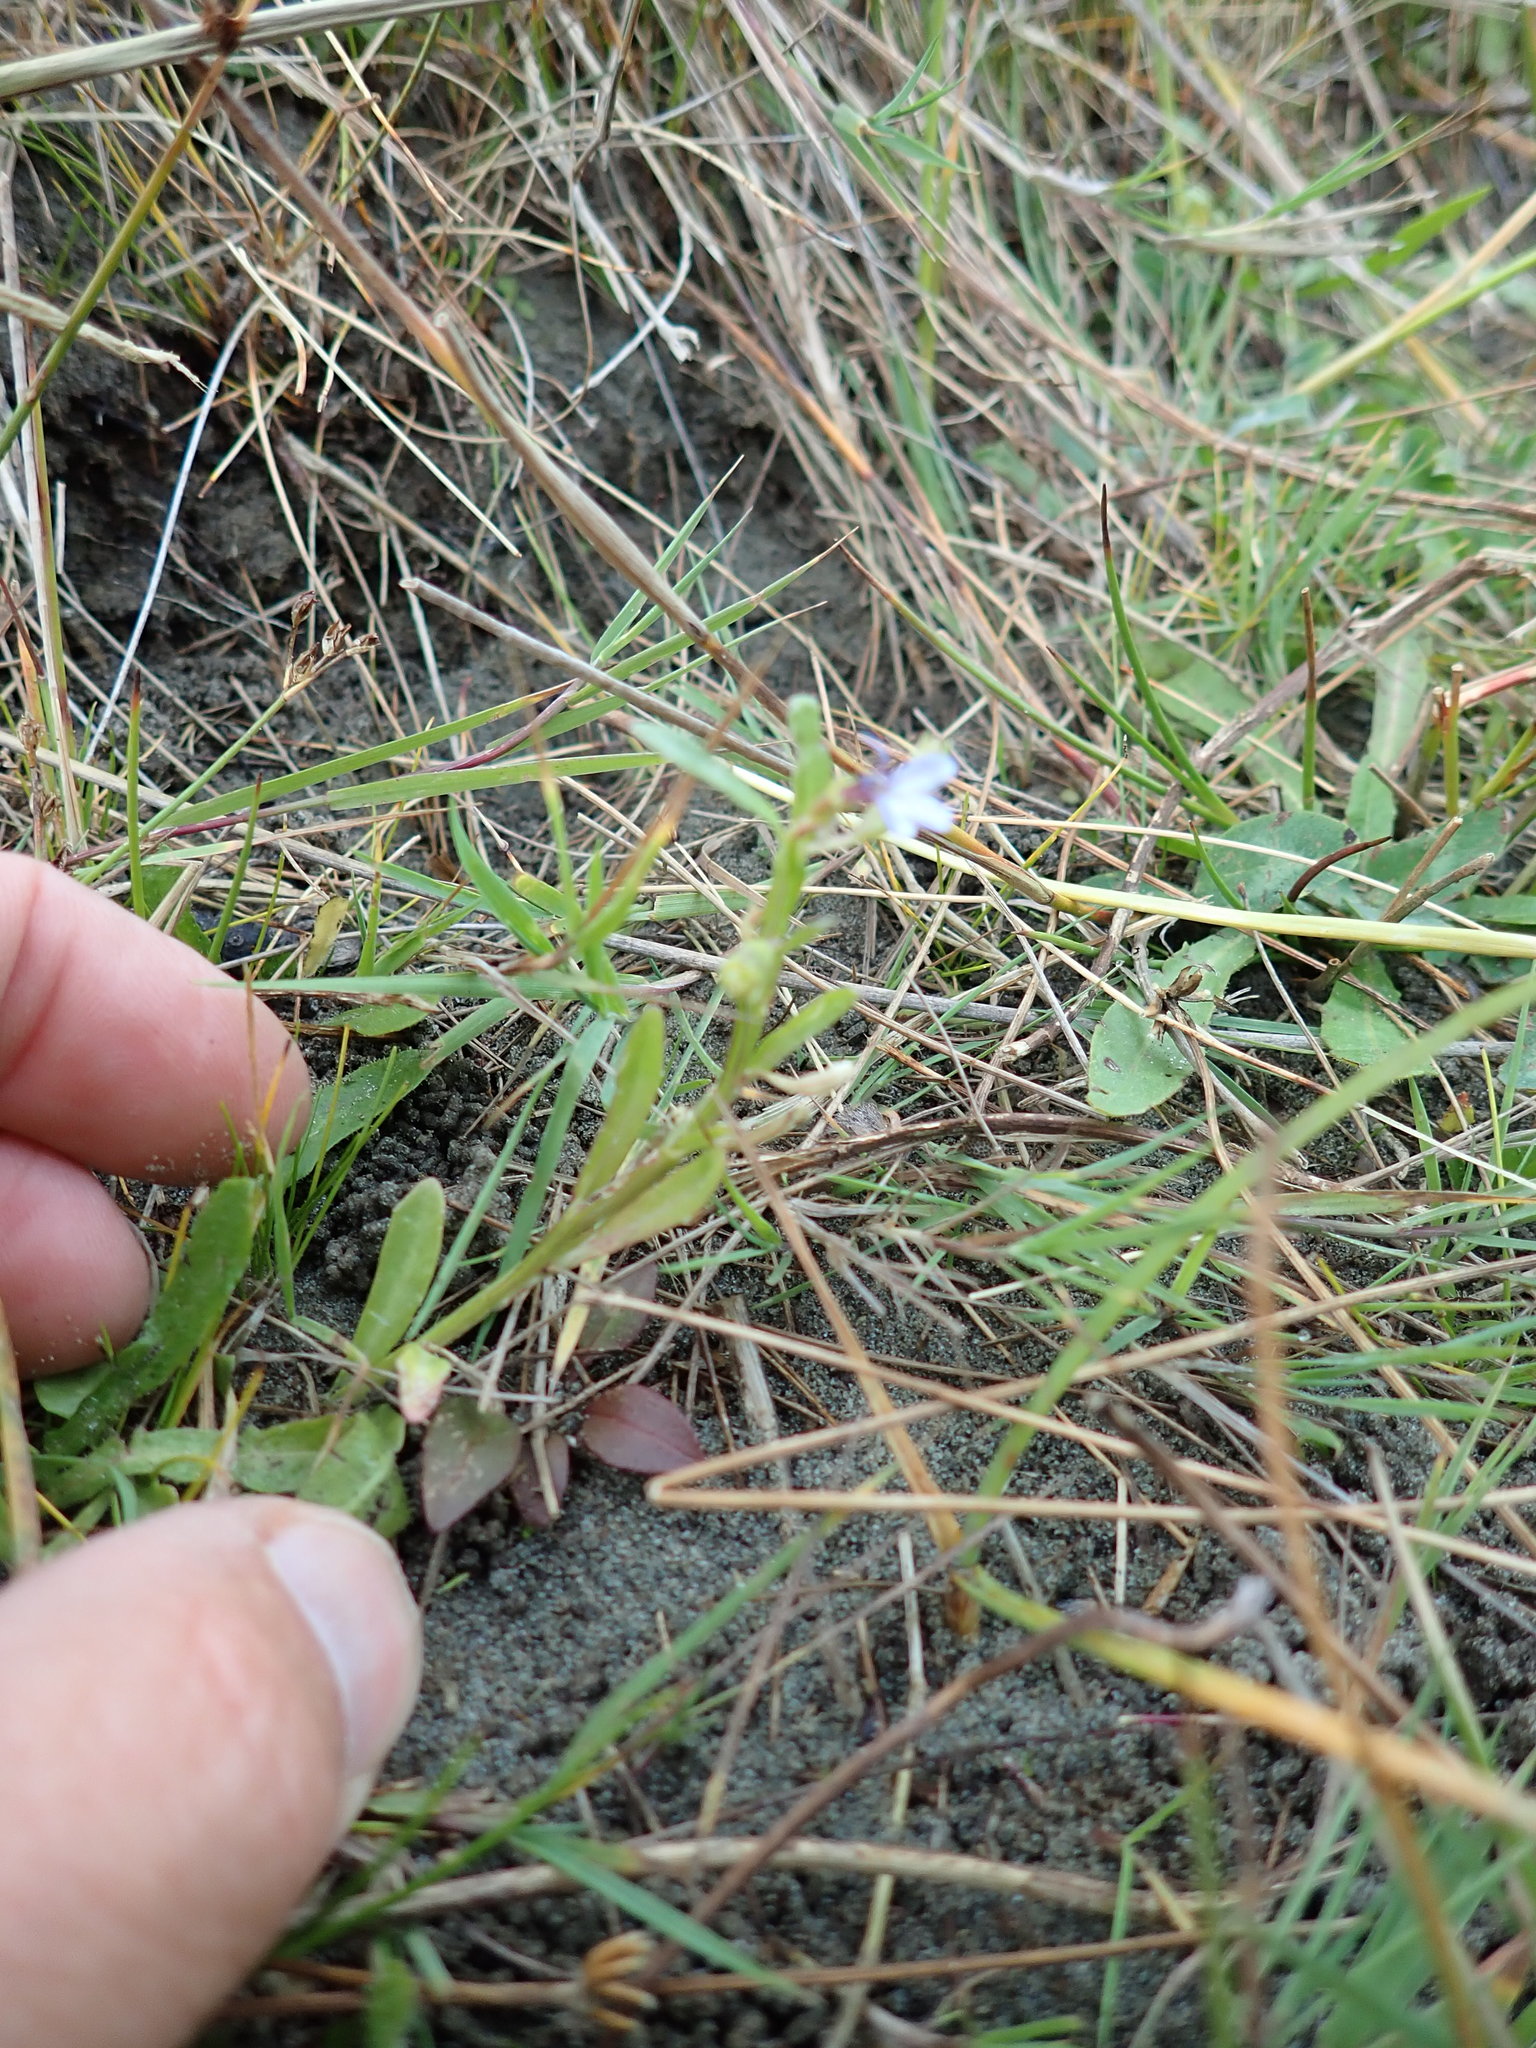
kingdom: Plantae
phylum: Tracheophyta
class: Magnoliopsida
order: Asterales
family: Campanulaceae
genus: Lobelia
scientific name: Lobelia anceps
